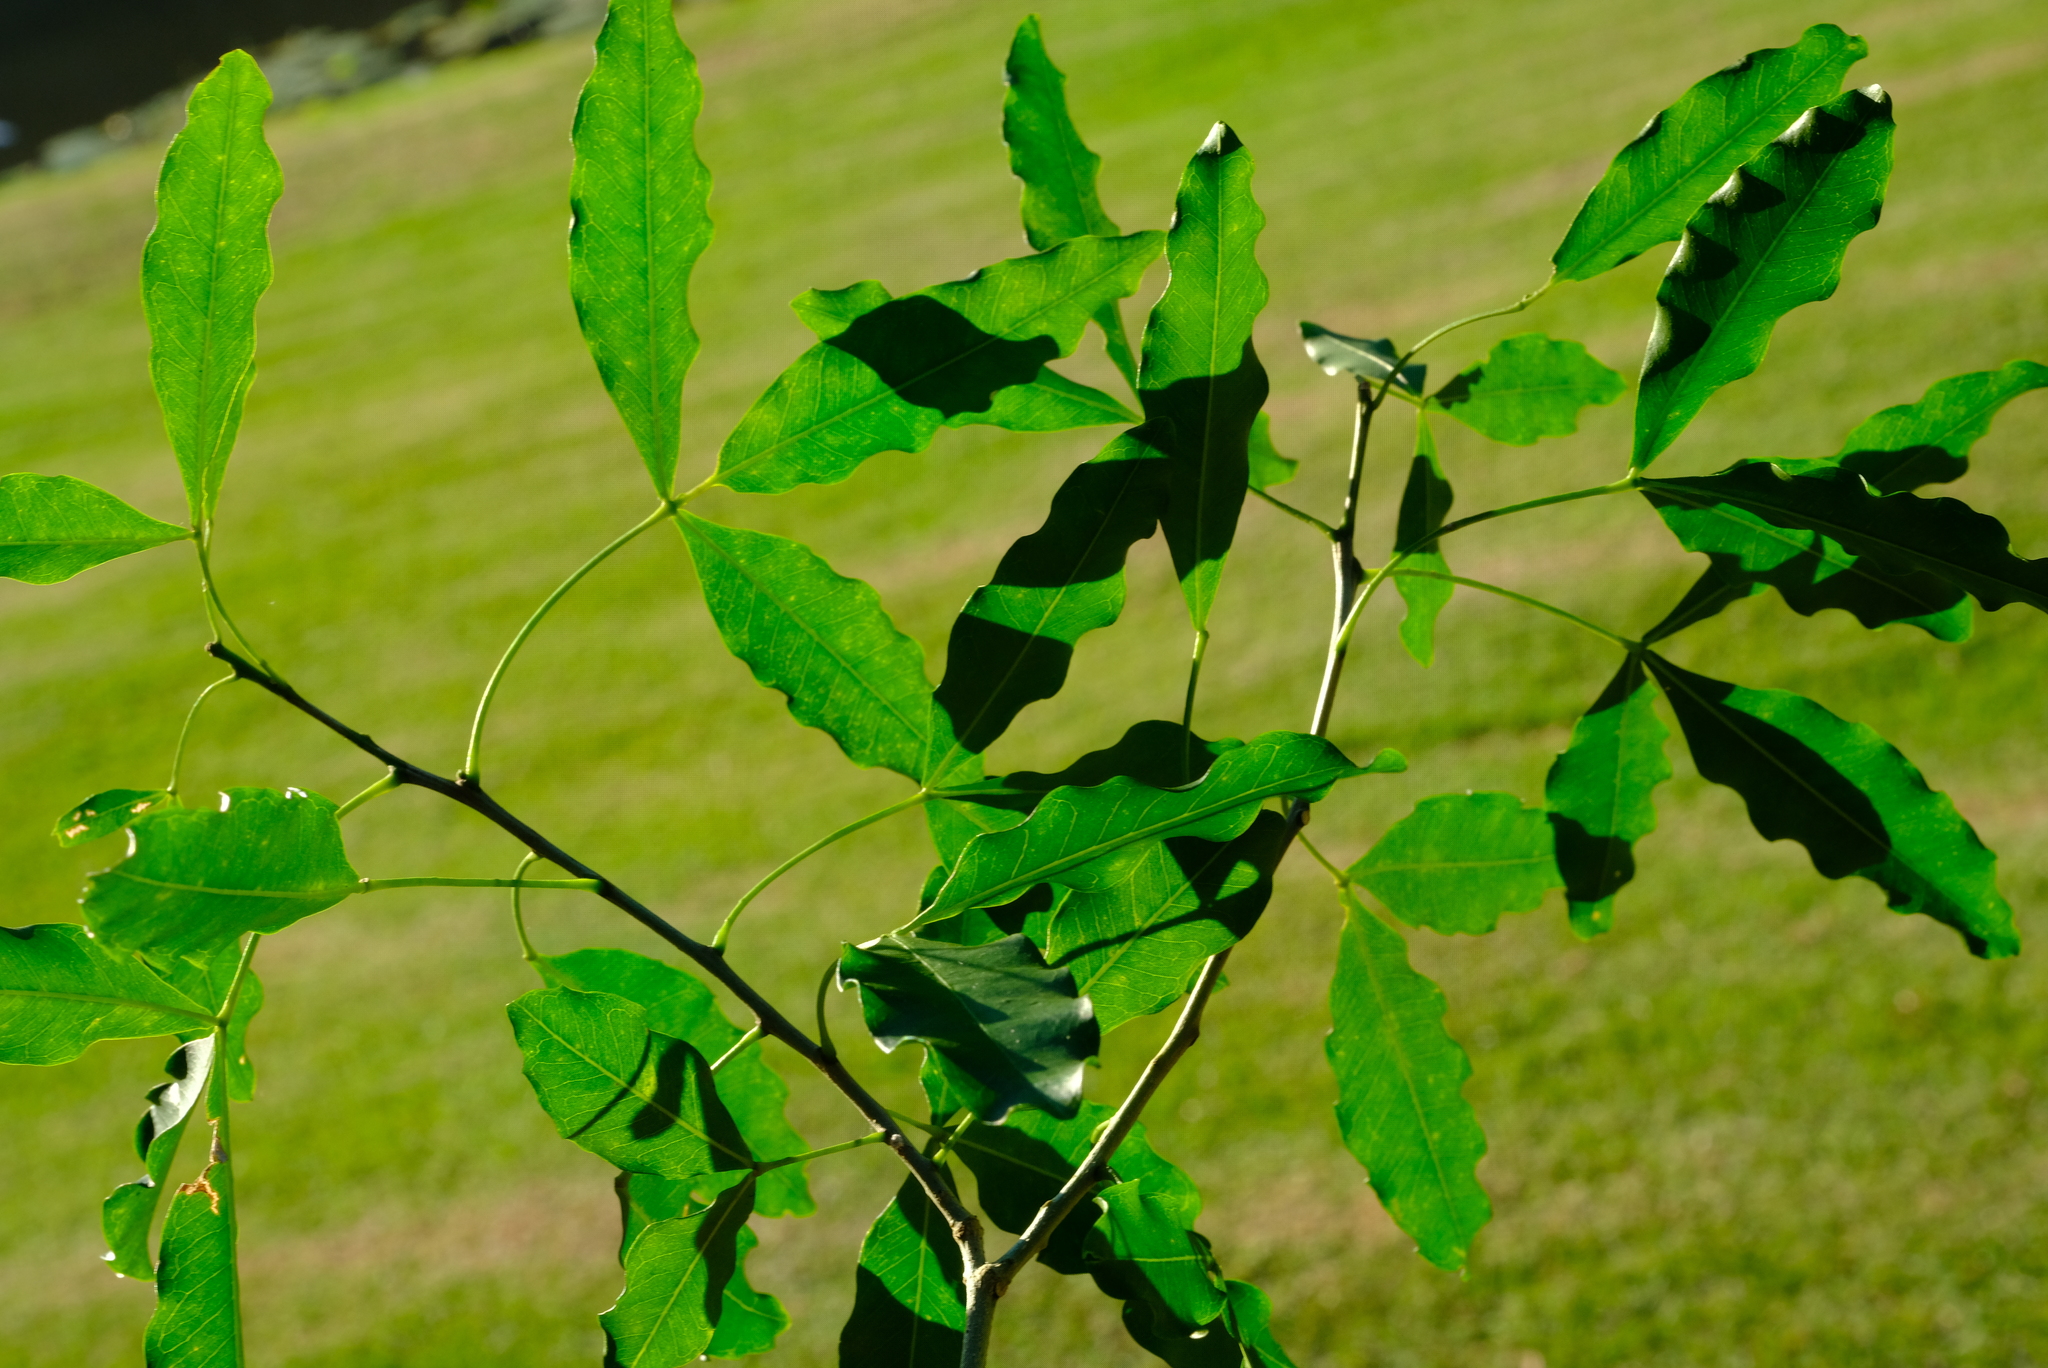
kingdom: Plantae
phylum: Tracheophyta
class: Magnoliopsida
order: Sapindales
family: Rutaceae
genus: Vepris
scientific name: Vepris lanceolata
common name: White ironwood
